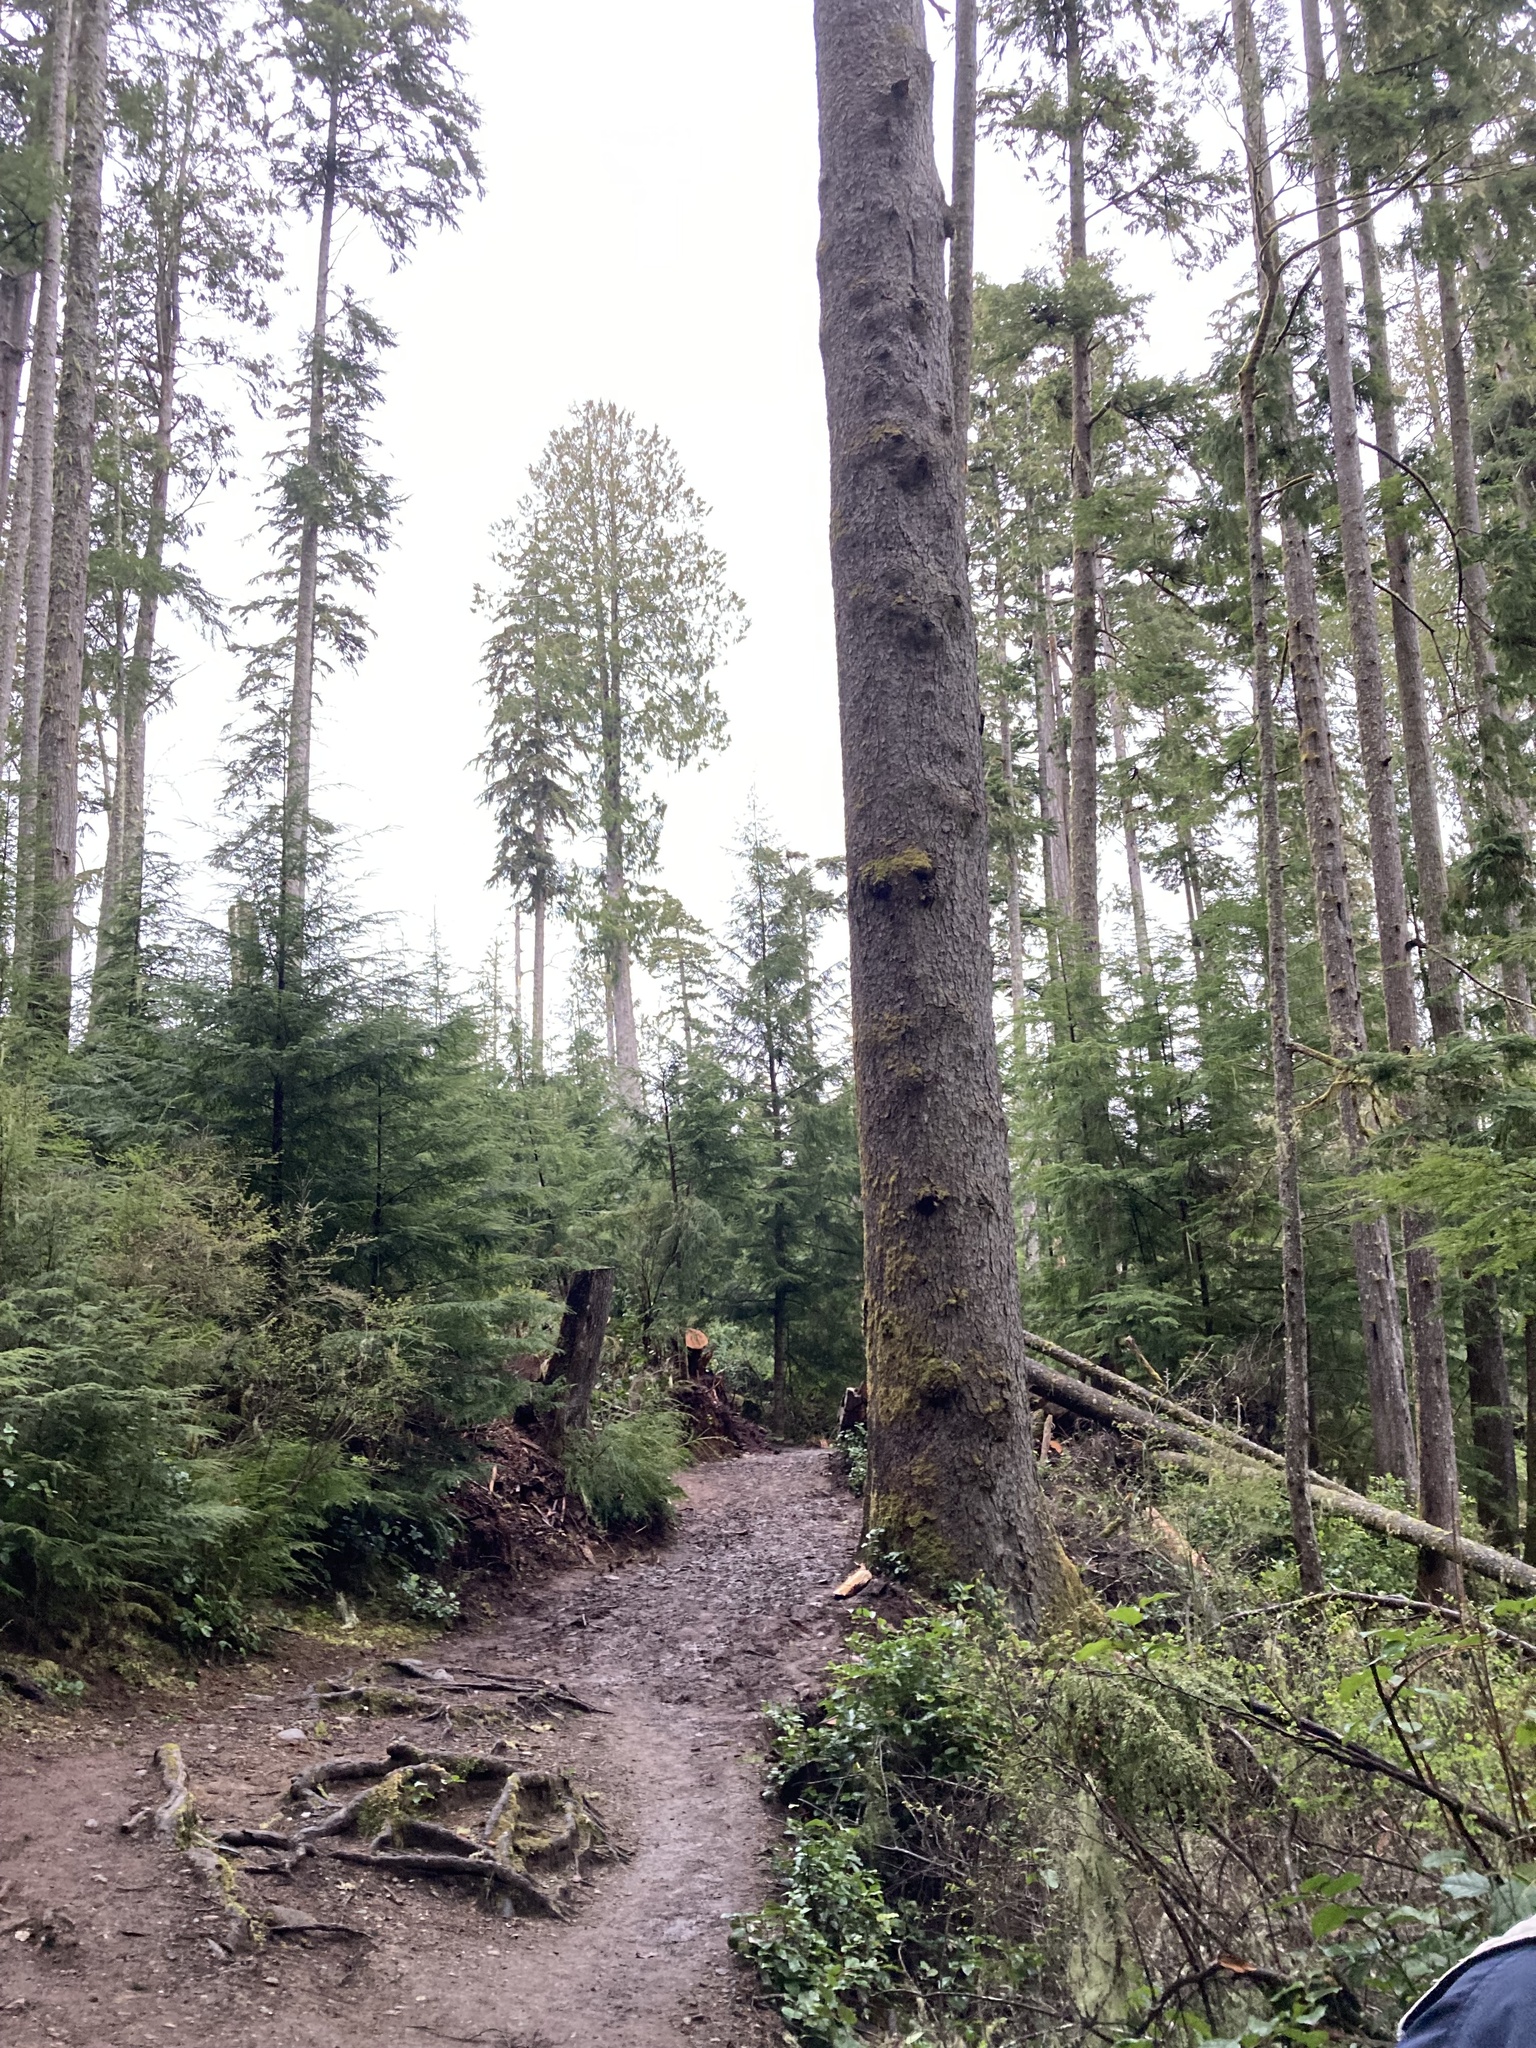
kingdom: Plantae
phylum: Tracheophyta
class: Pinopsida
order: Pinales
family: Pinaceae
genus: Picea
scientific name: Picea sitchensis
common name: Sitka spruce
